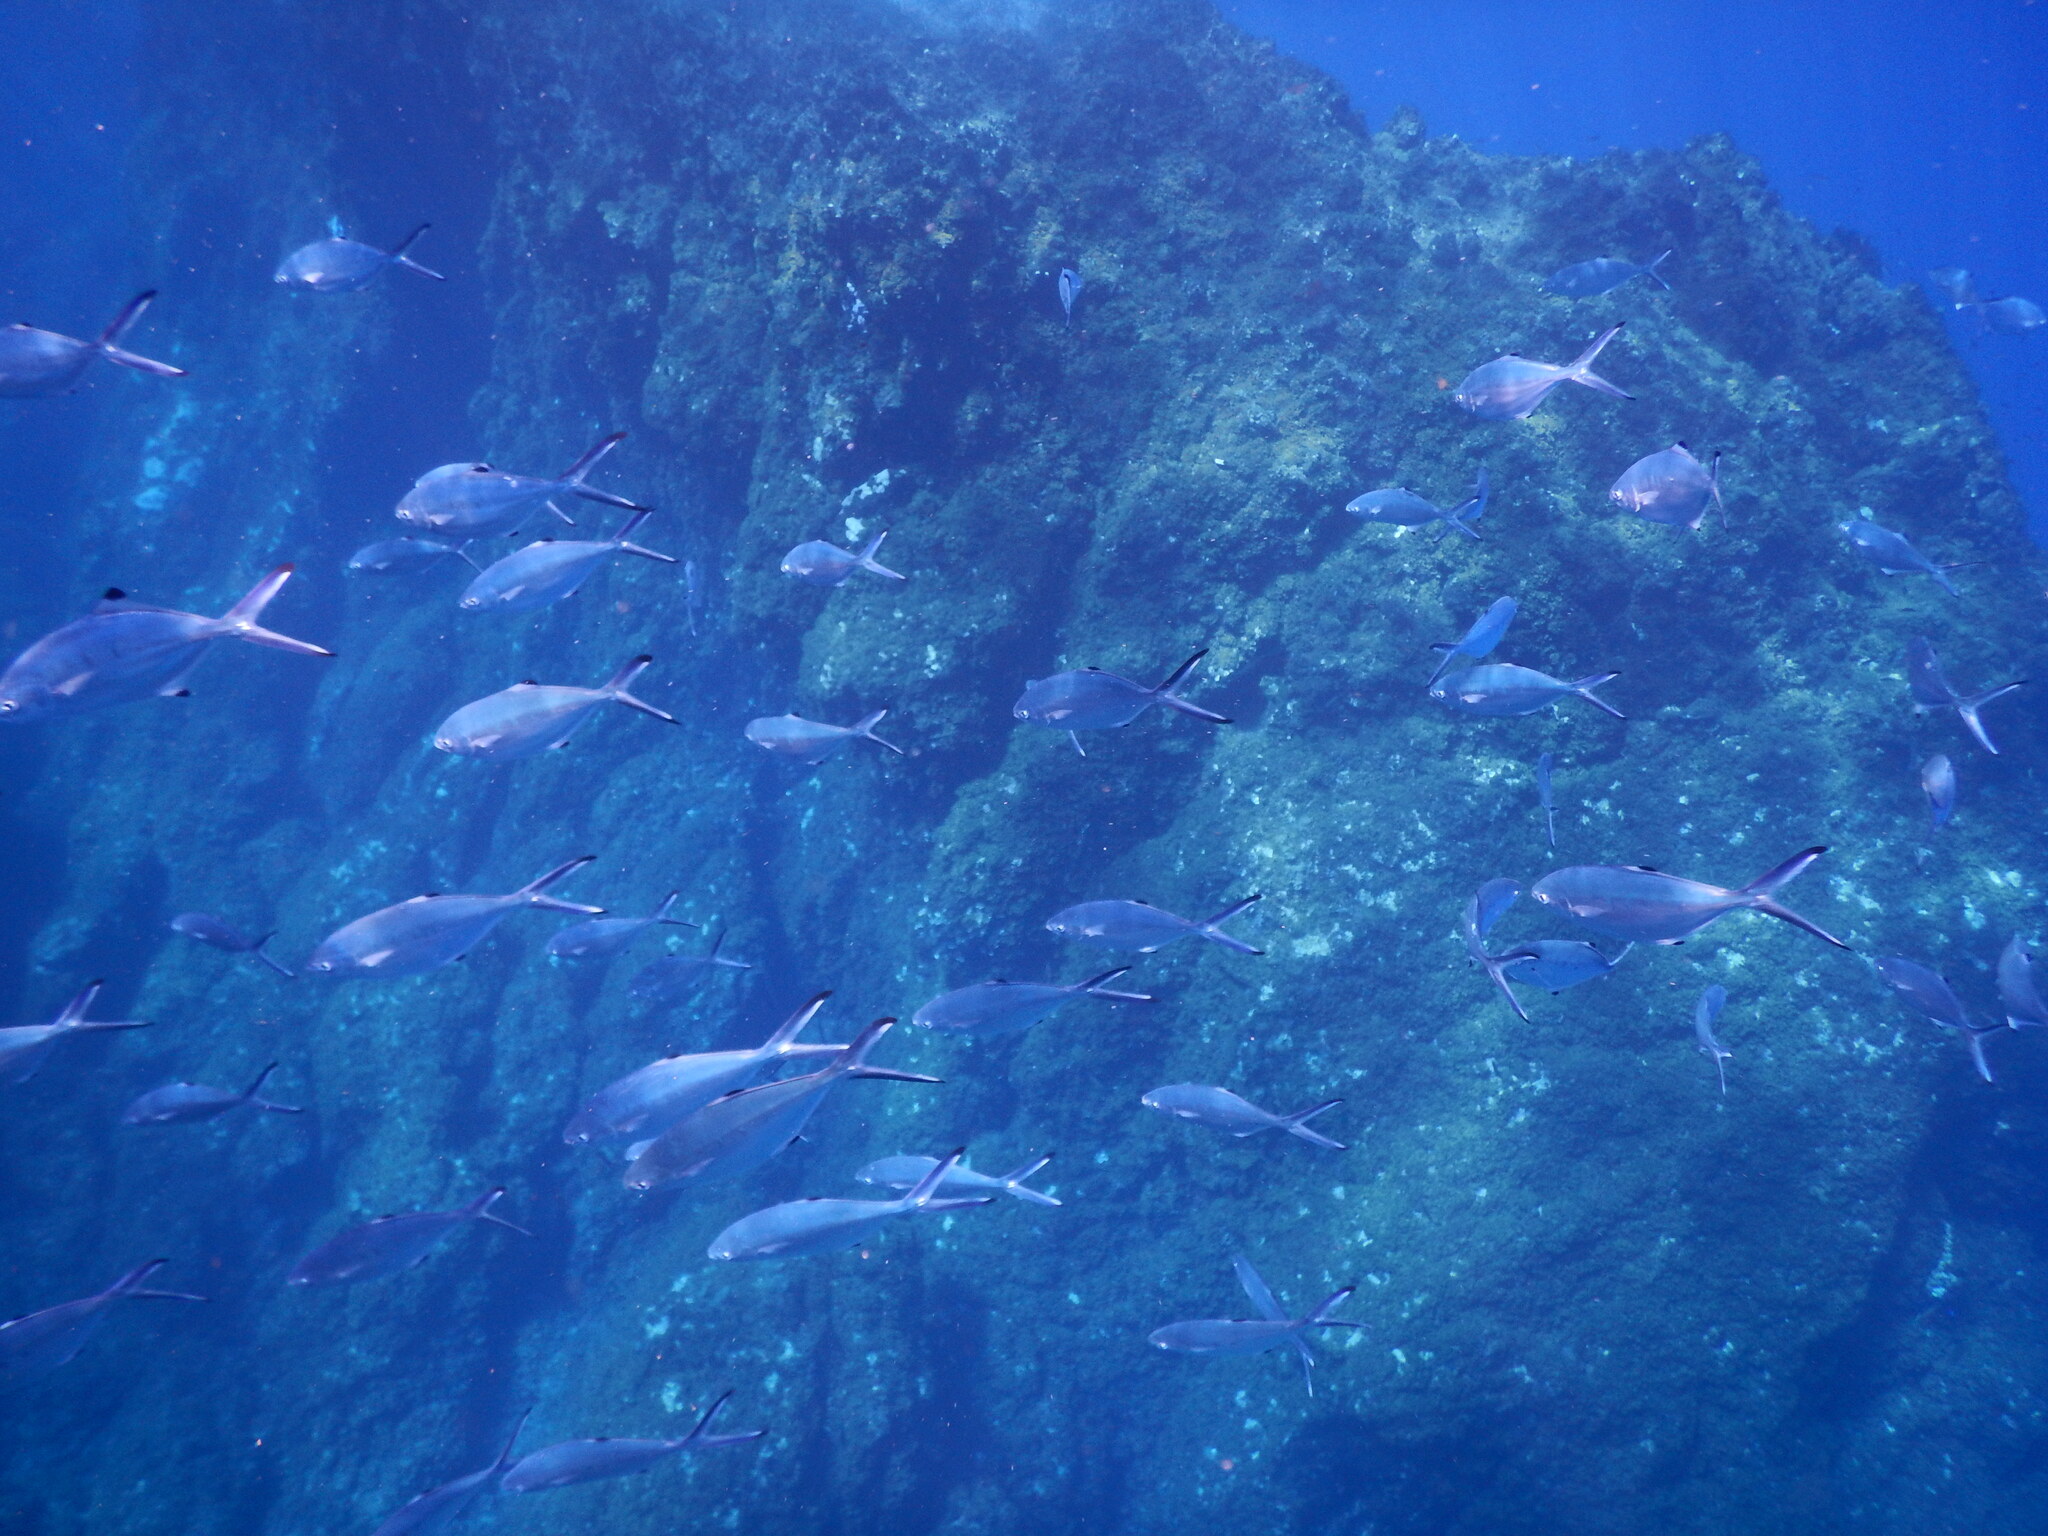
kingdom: Animalia
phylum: Chordata
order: Perciformes
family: Carangidae
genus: Trachinotus
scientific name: Trachinotus ovatus
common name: Pompano
